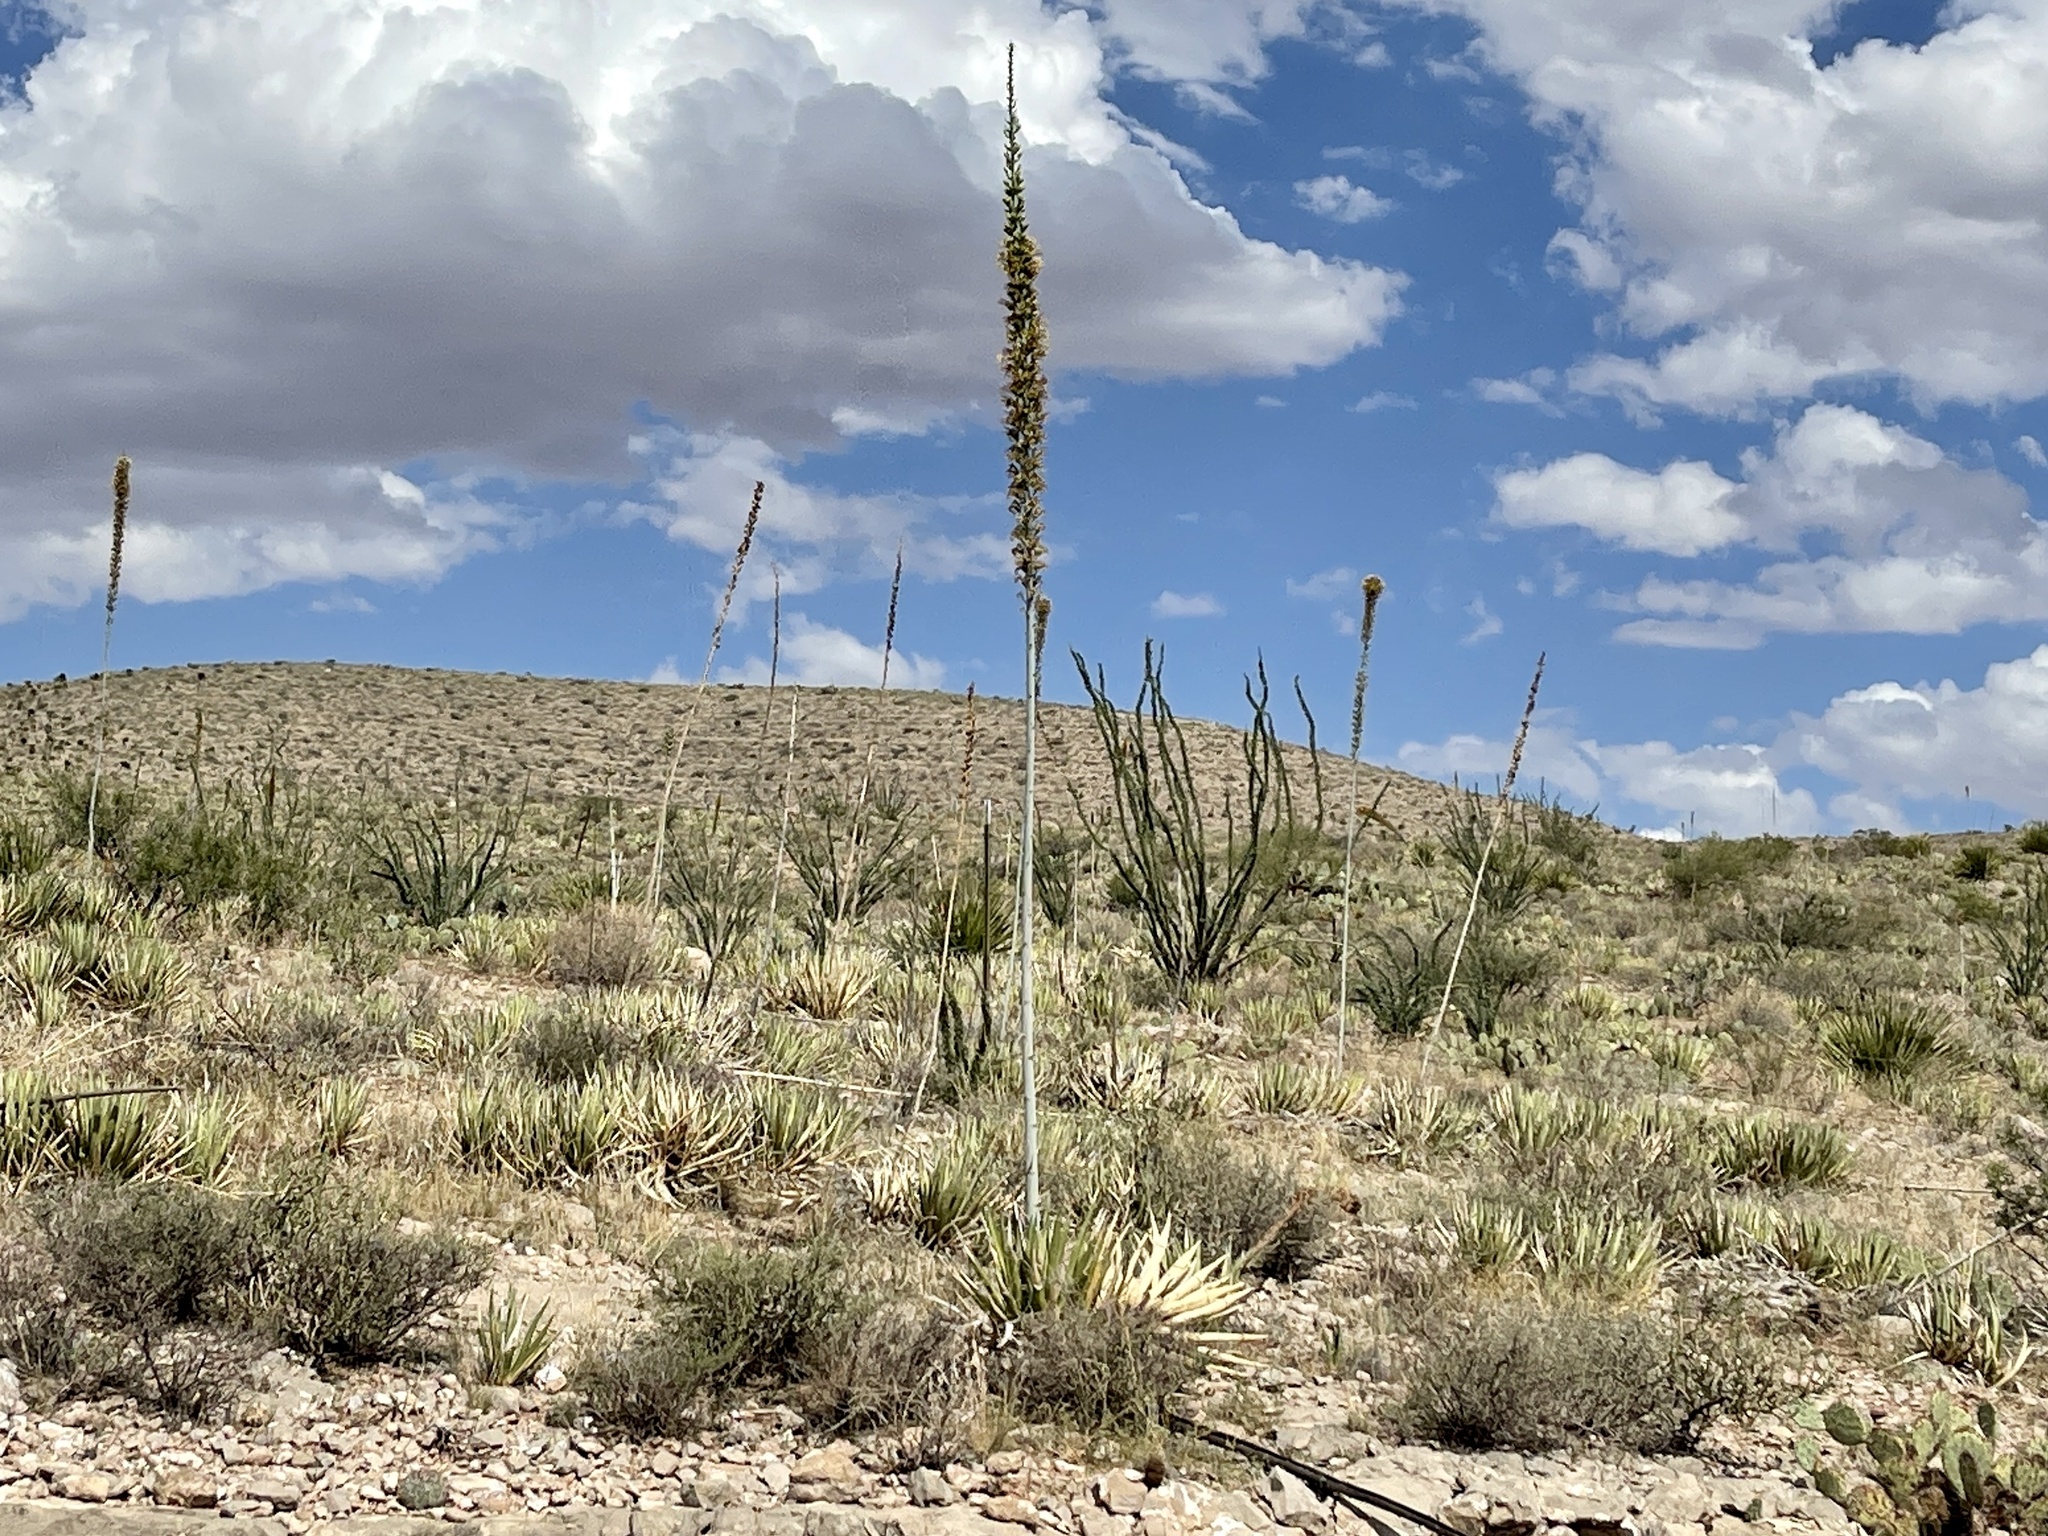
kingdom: Plantae
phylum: Tracheophyta
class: Liliopsida
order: Asparagales
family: Asparagaceae
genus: Agave
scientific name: Agave lechuguilla
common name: Lecheguilla agave
